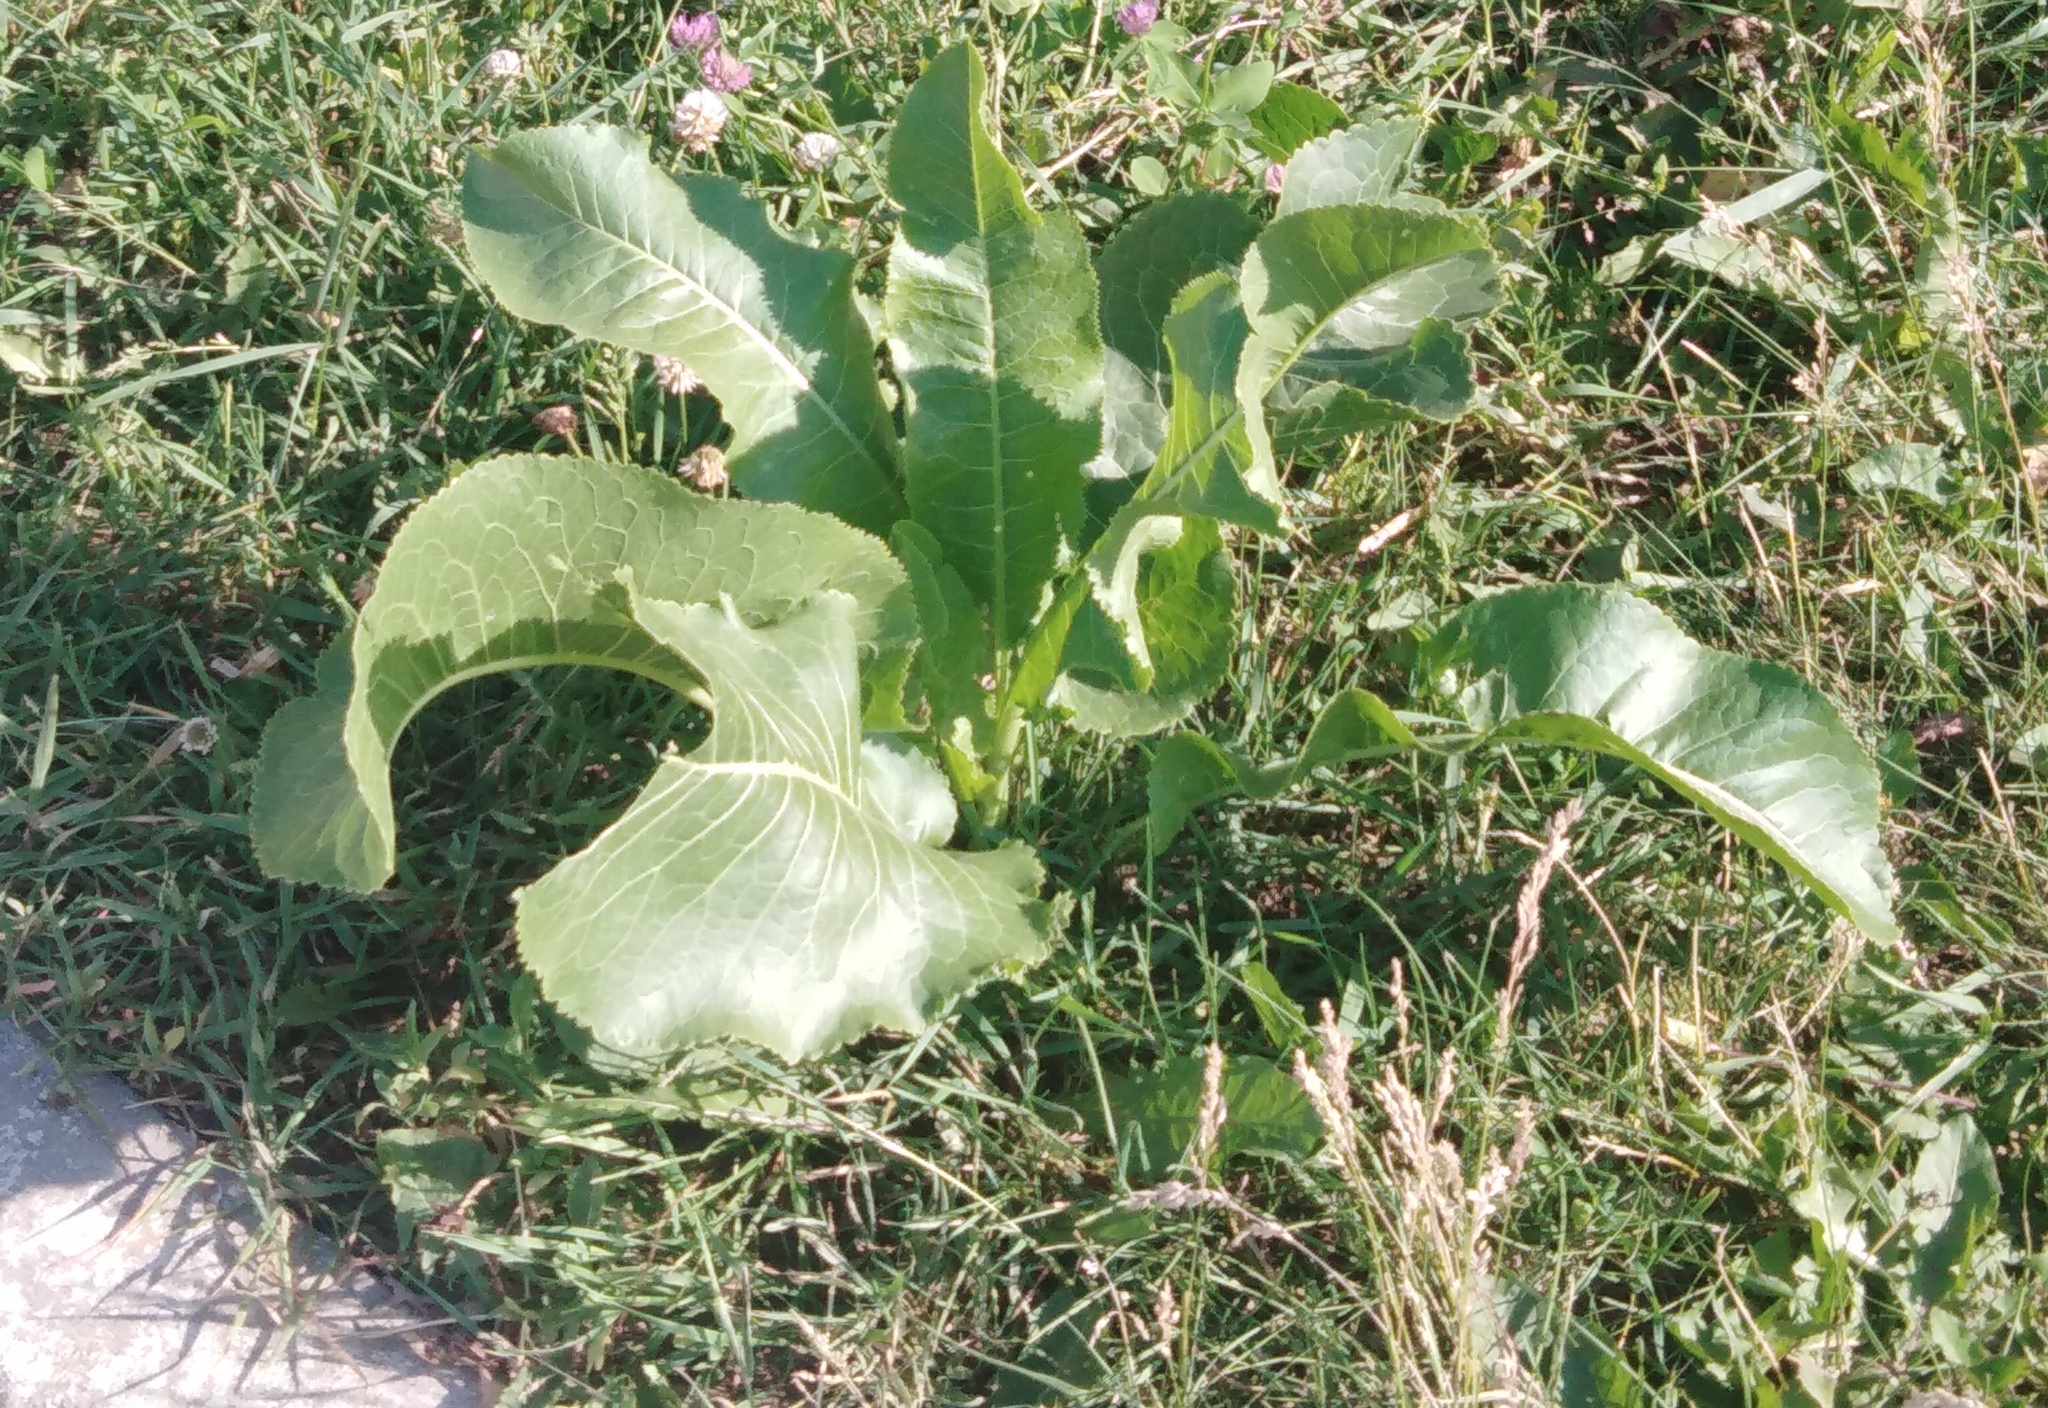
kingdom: Plantae
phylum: Tracheophyta
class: Magnoliopsida
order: Brassicales
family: Brassicaceae
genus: Armoracia
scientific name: Armoracia rusticana
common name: Horseradish
